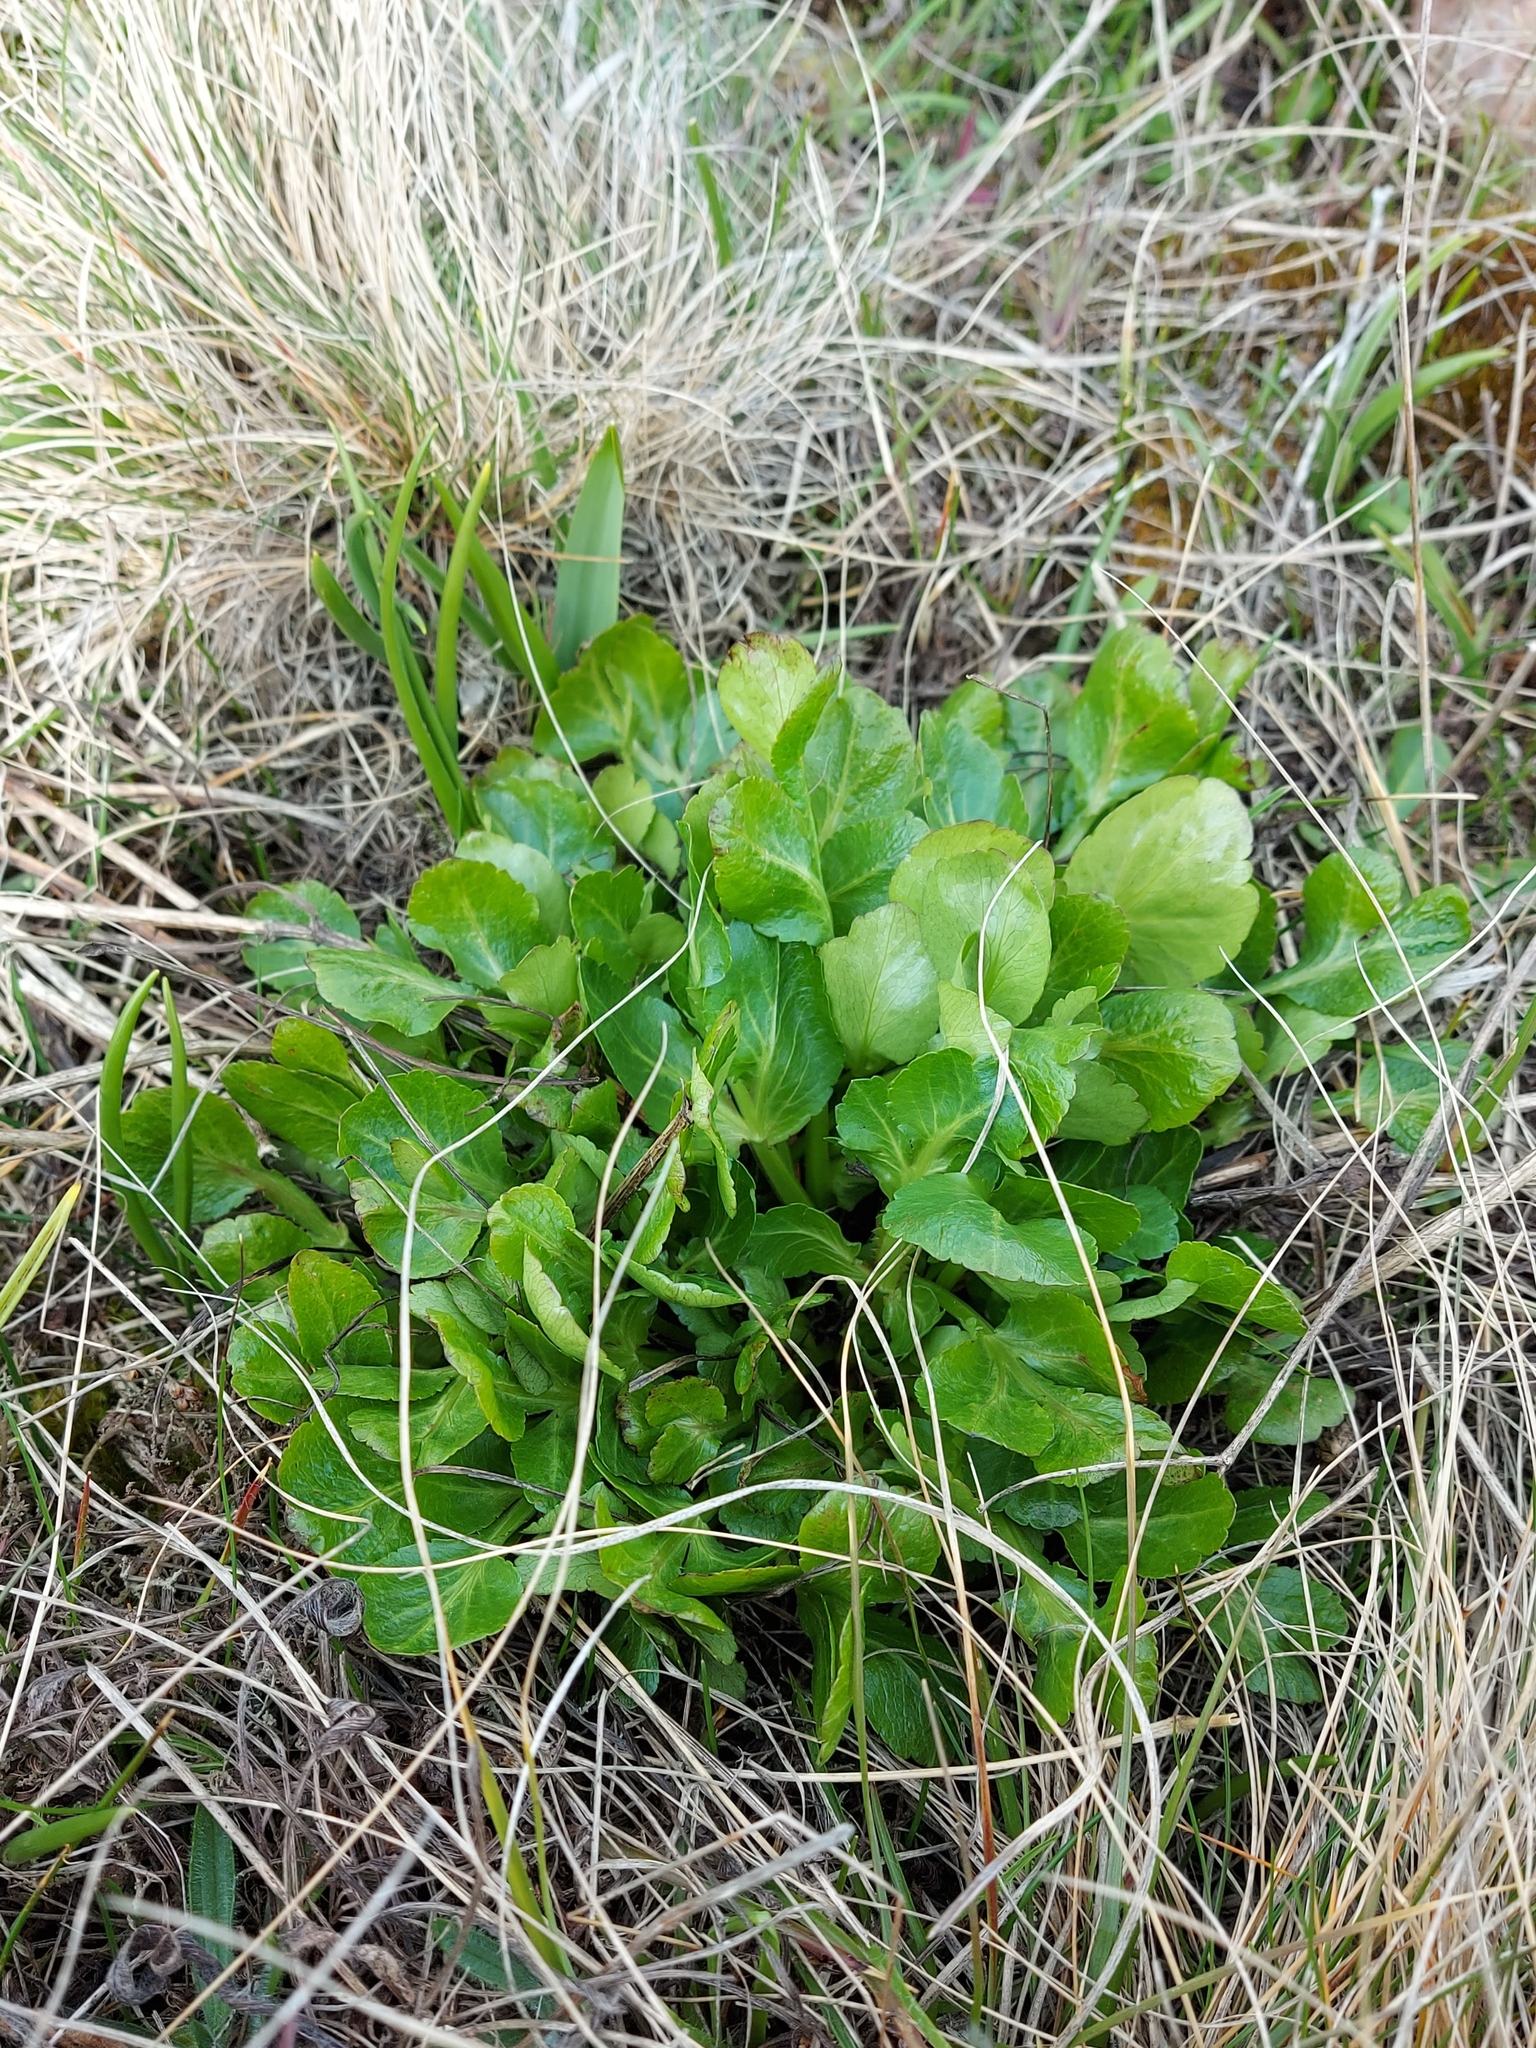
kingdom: Plantae
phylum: Tracheophyta
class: Magnoliopsida
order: Apiales
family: Apiaceae
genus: Sanicula
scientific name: Sanicula bipinnatifida
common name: Shoe-buttons
